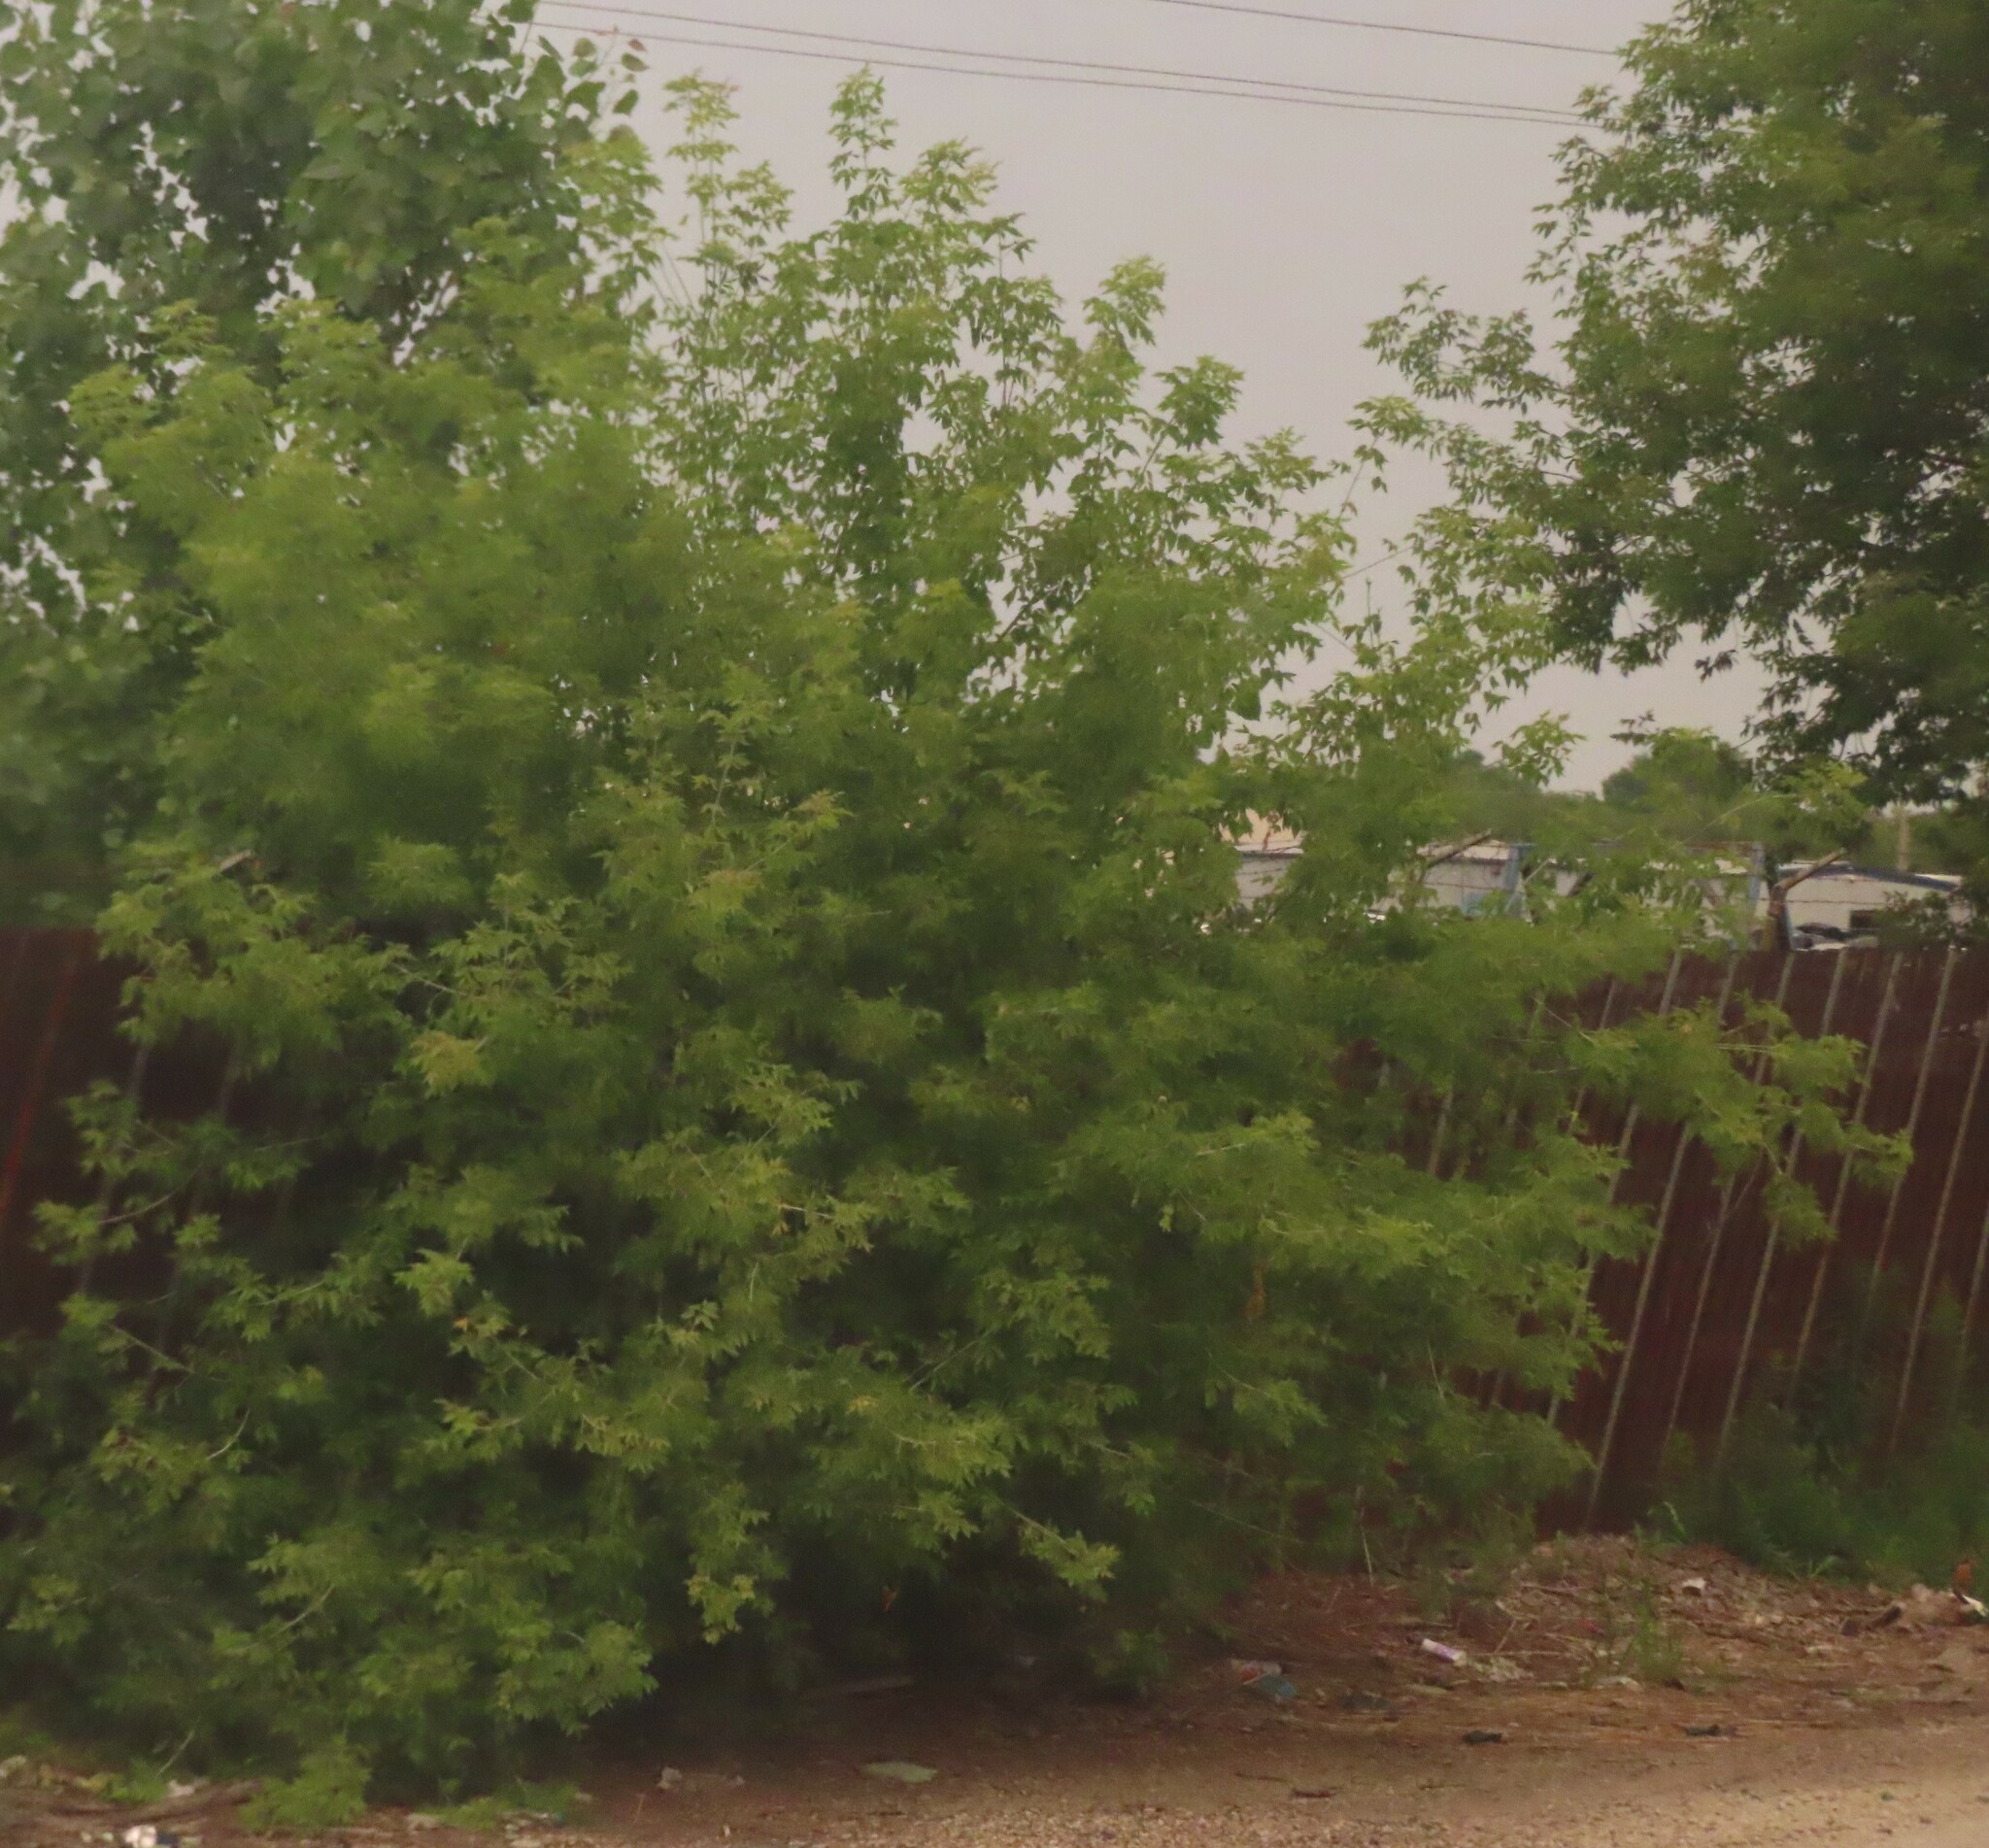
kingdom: Plantae
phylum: Tracheophyta
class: Magnoliopsida
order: Sapindales
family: Sapindaceae
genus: Acer
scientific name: Acer negundo
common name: Ashleaf maple
